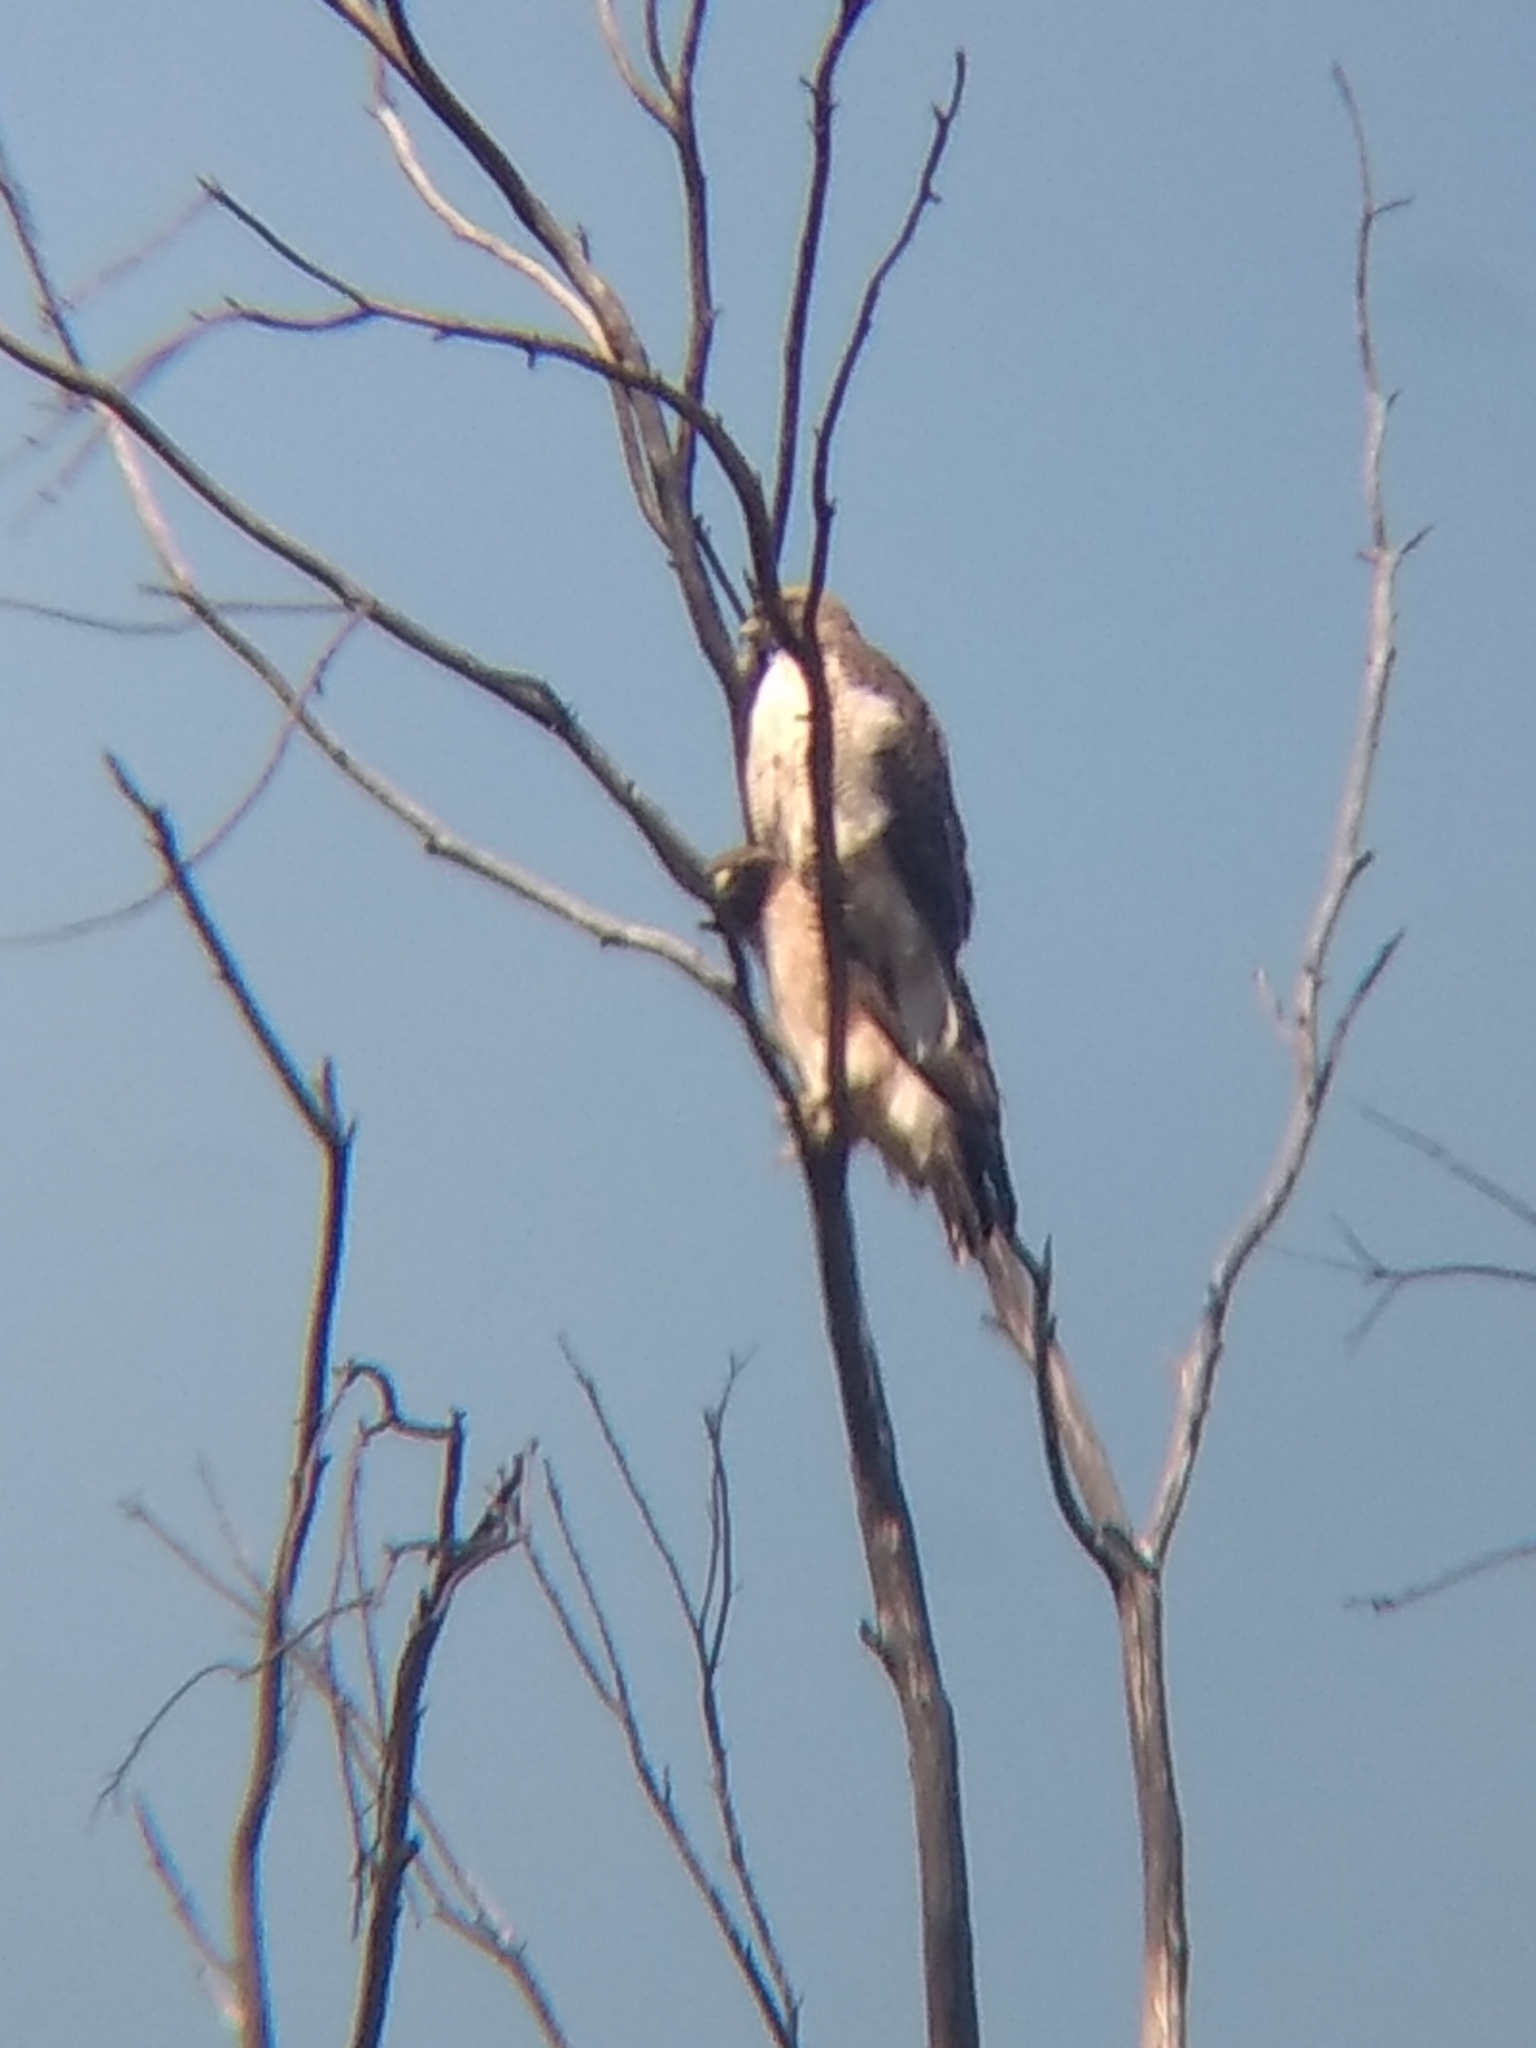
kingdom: Animalia
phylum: Chordata
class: Aves
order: Accipitriformes
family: Accipitridae
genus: Buteo
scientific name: Buteo jamaicensis
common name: Red-tailed hawk
